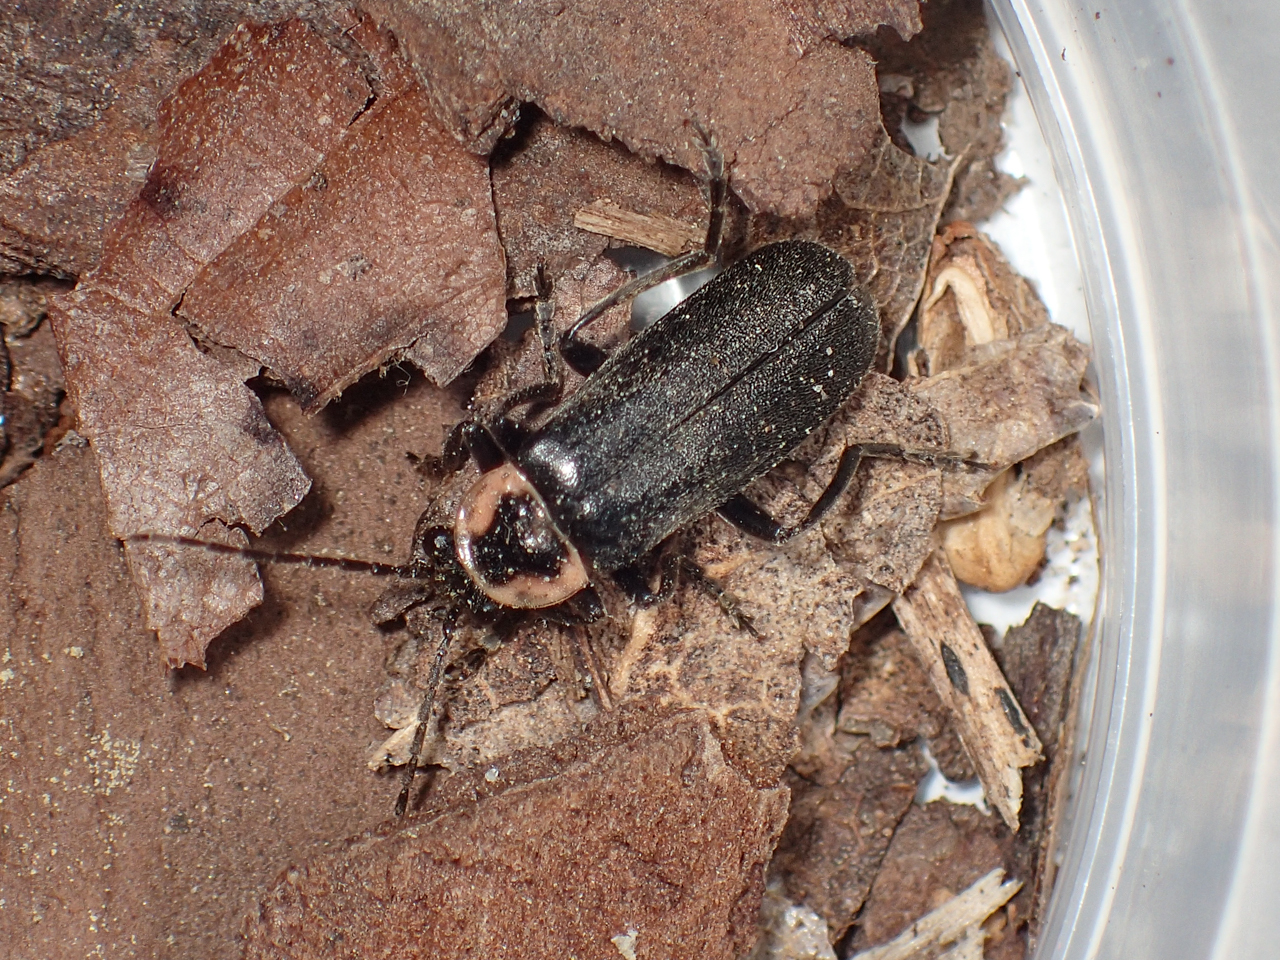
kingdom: Animalia
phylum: Arthropoda
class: Insecta
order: Coleoptera
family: Cantharidae
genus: Rhaxonycha
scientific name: Rhaxonycha carolina
